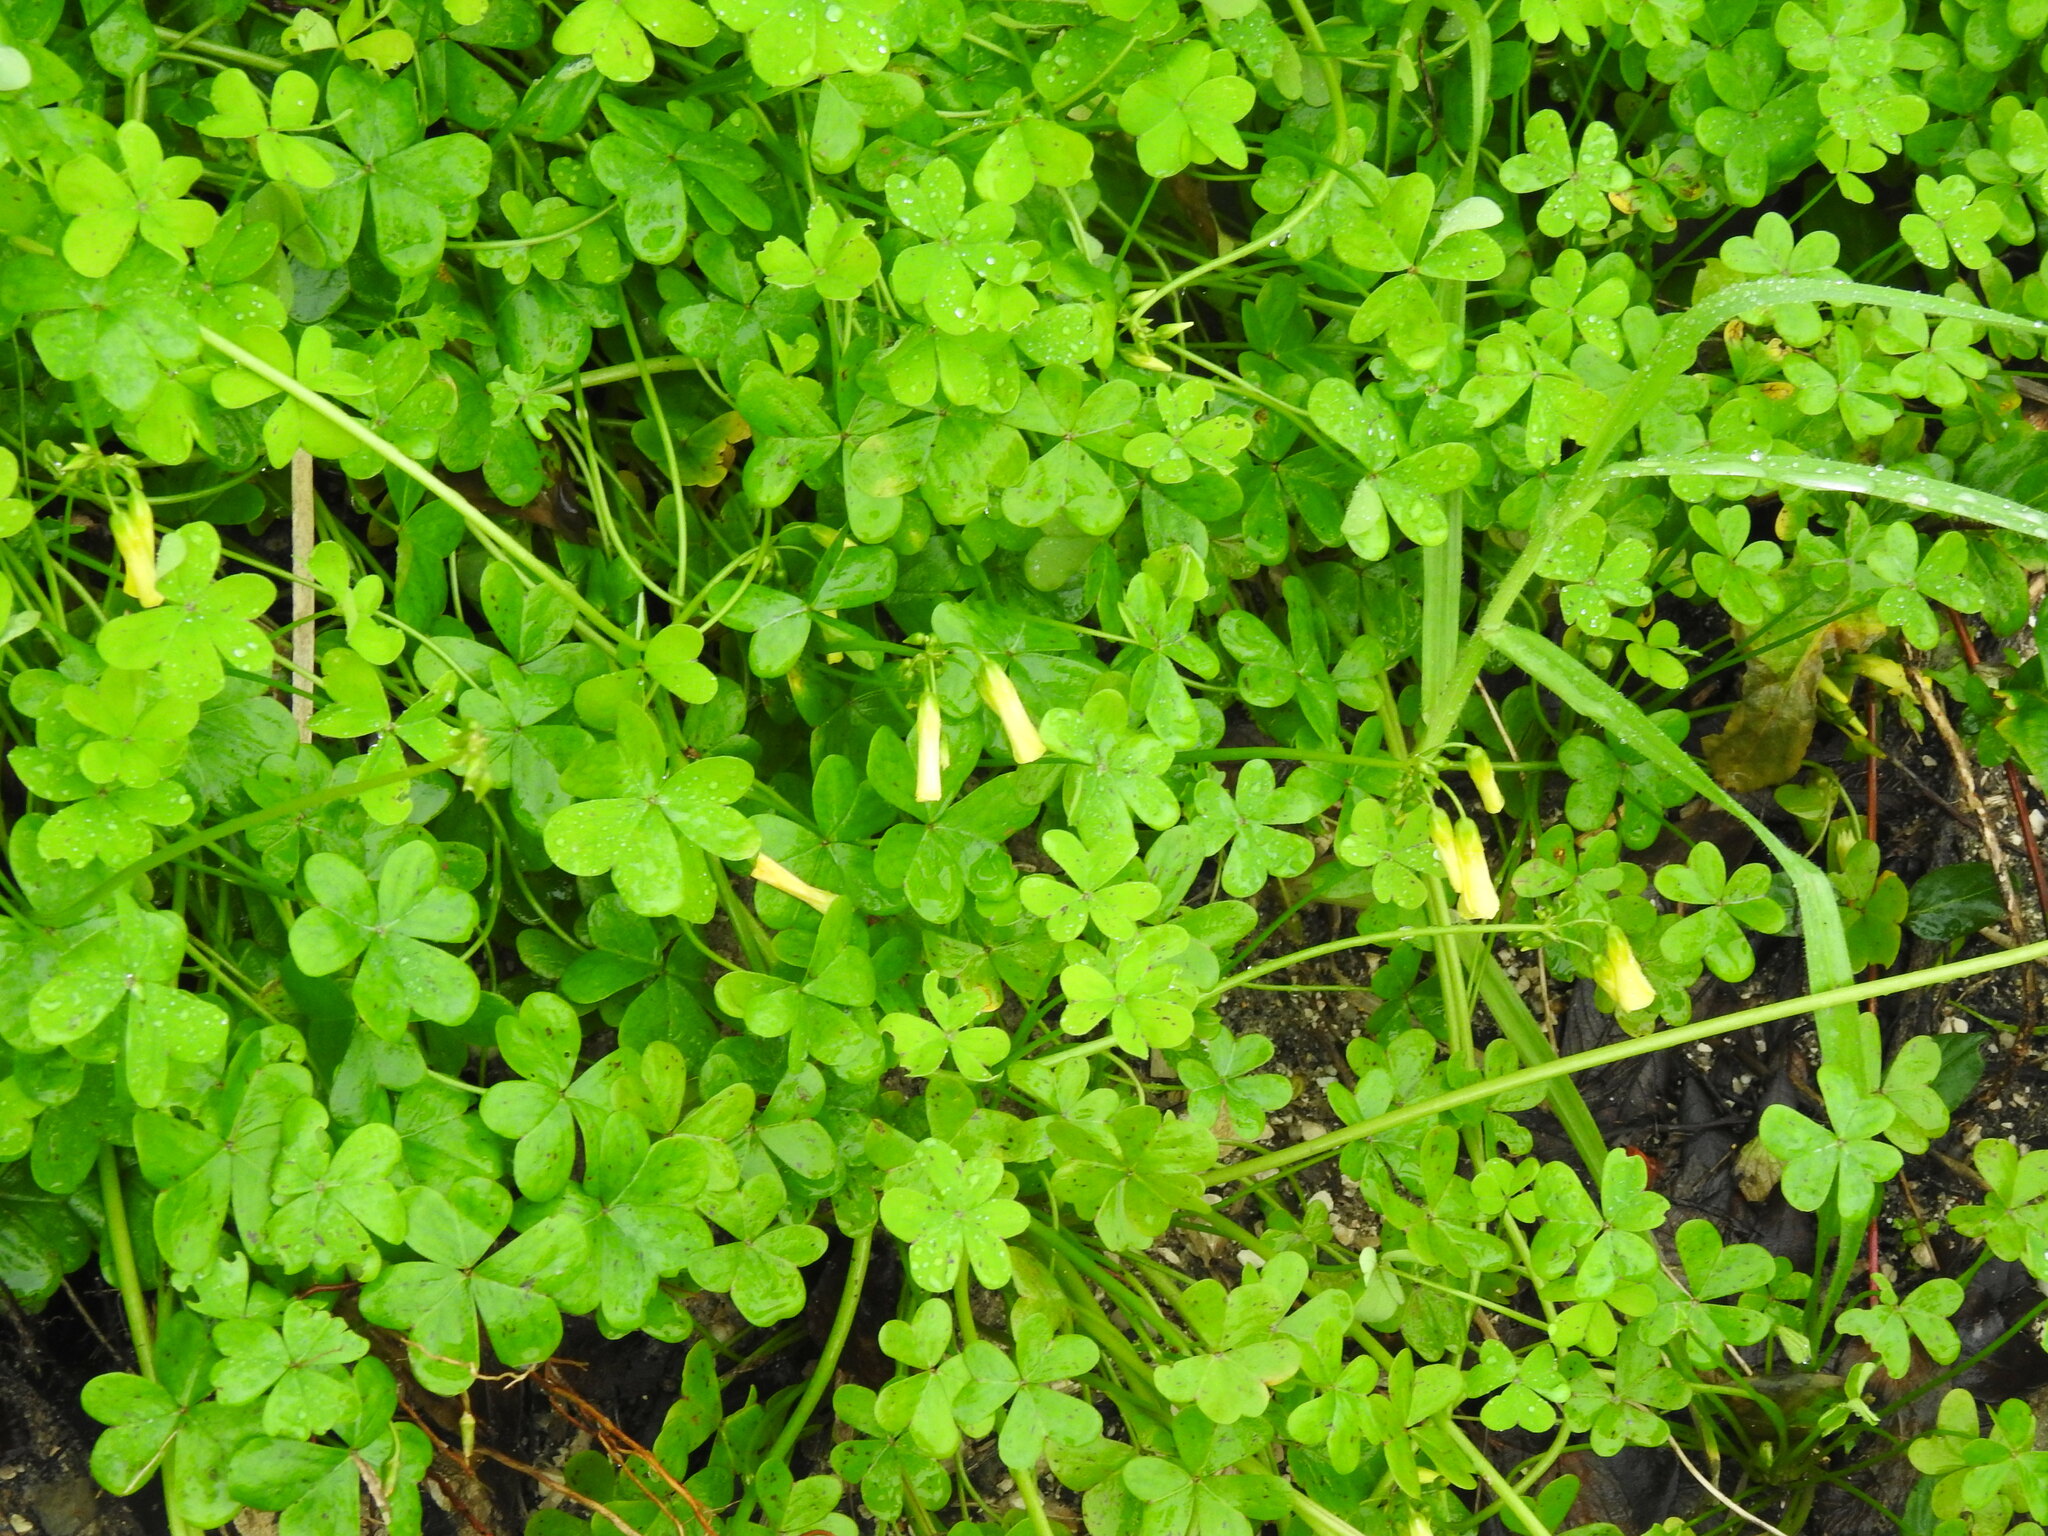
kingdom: Plantae
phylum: Tracheophyta
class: Magnoliopsida
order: Oxalidales
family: Oxalidaceae
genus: Oxalis
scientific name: Oxalis pes-caprae
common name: Bermuda-buttercup
